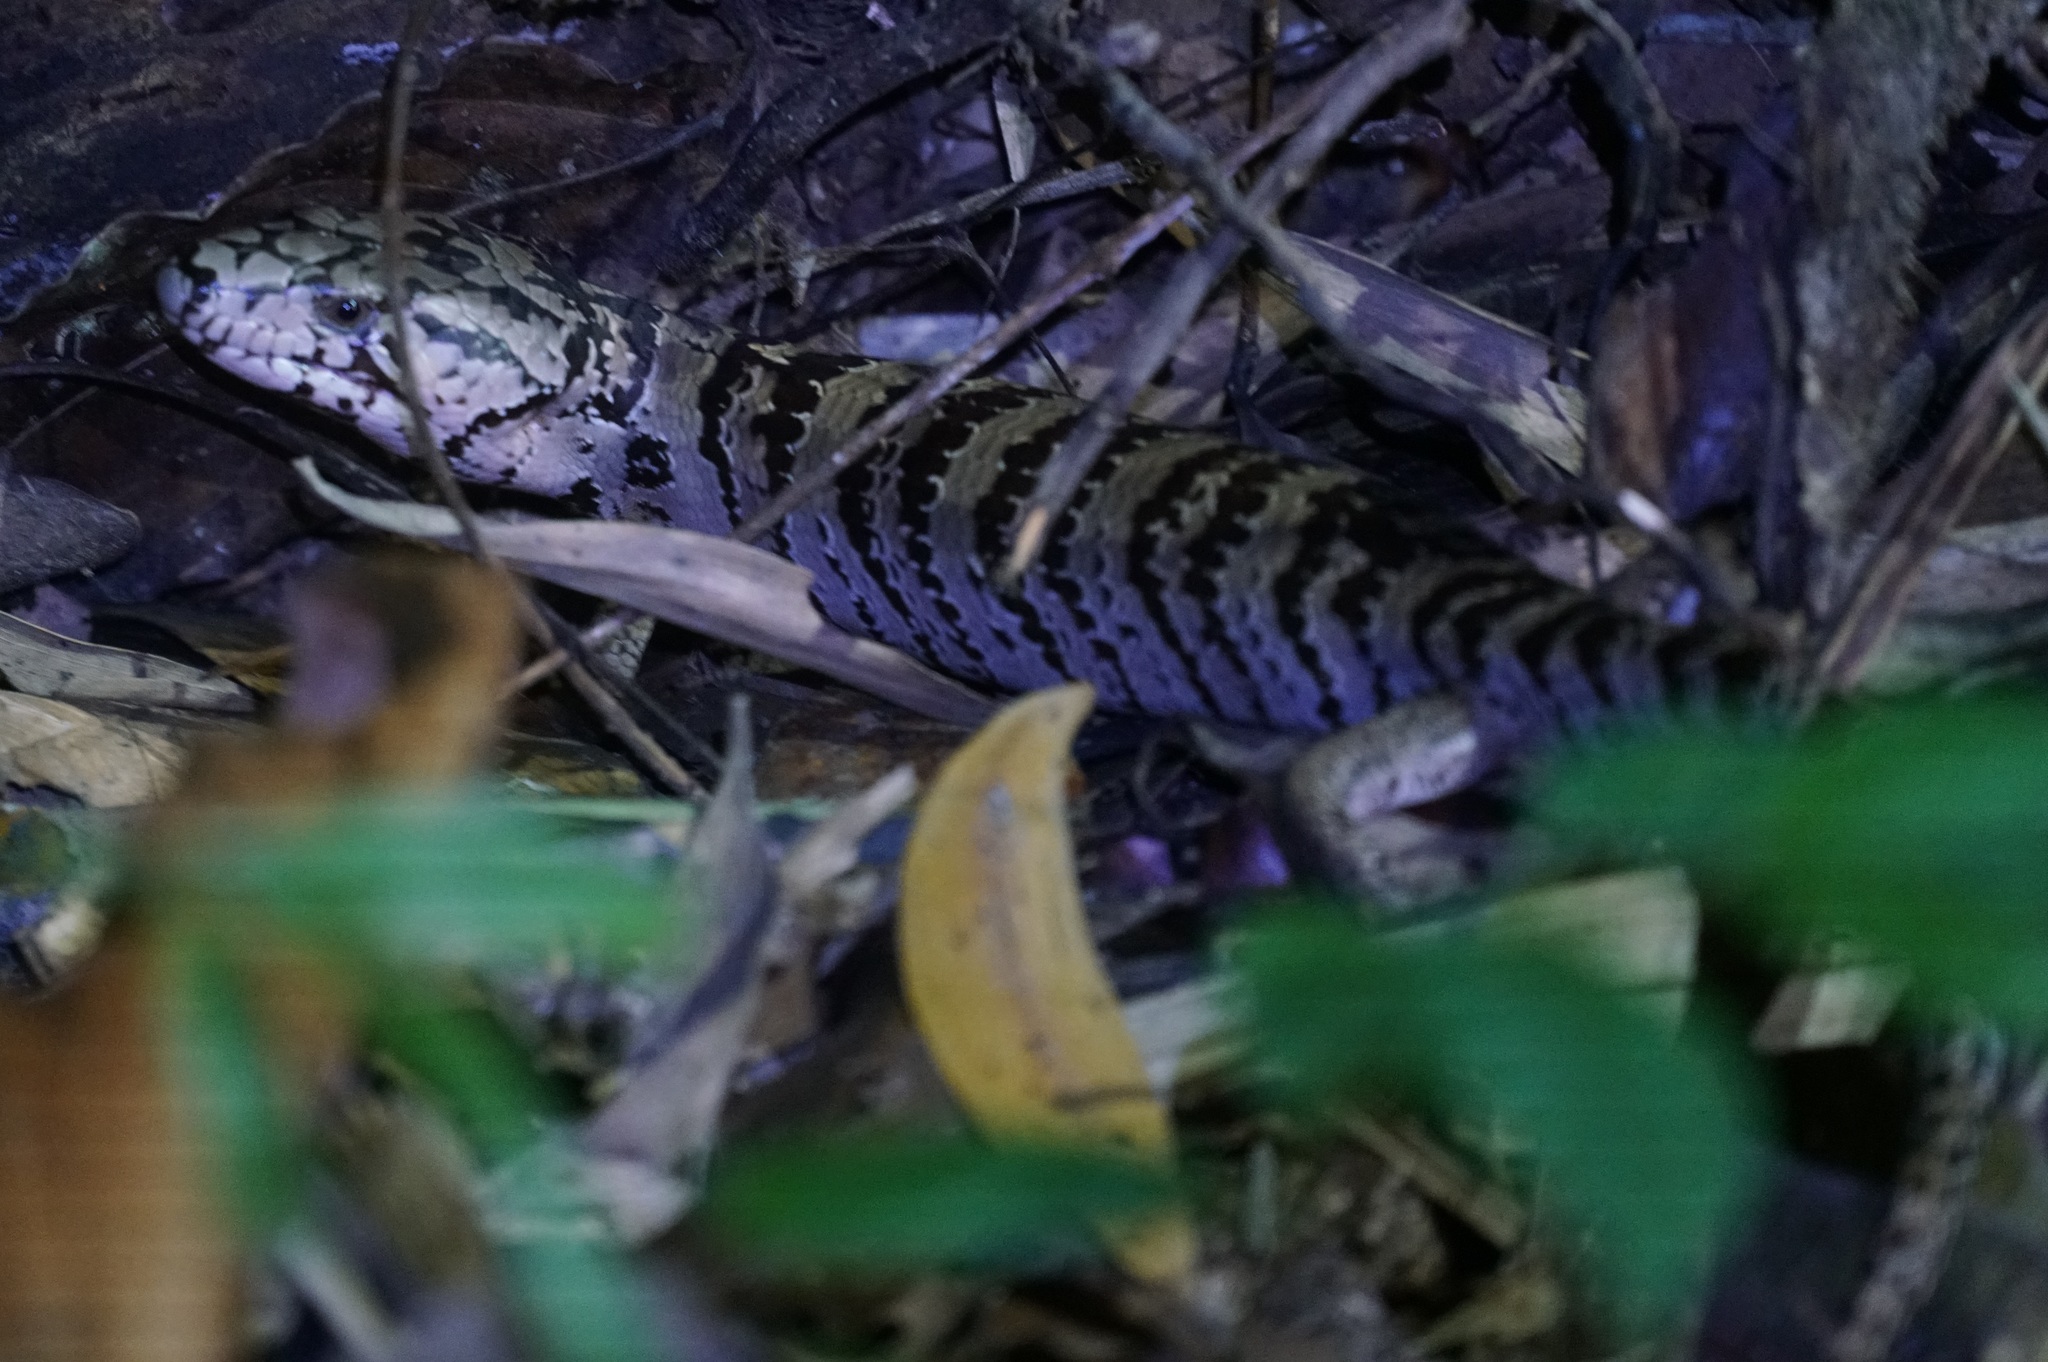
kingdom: Animalia
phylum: Chordata
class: Squamata
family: Scincidae
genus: Cyclodomorphus
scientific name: Cyclodomorphus gerrardii
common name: Pink-tongued lizard
